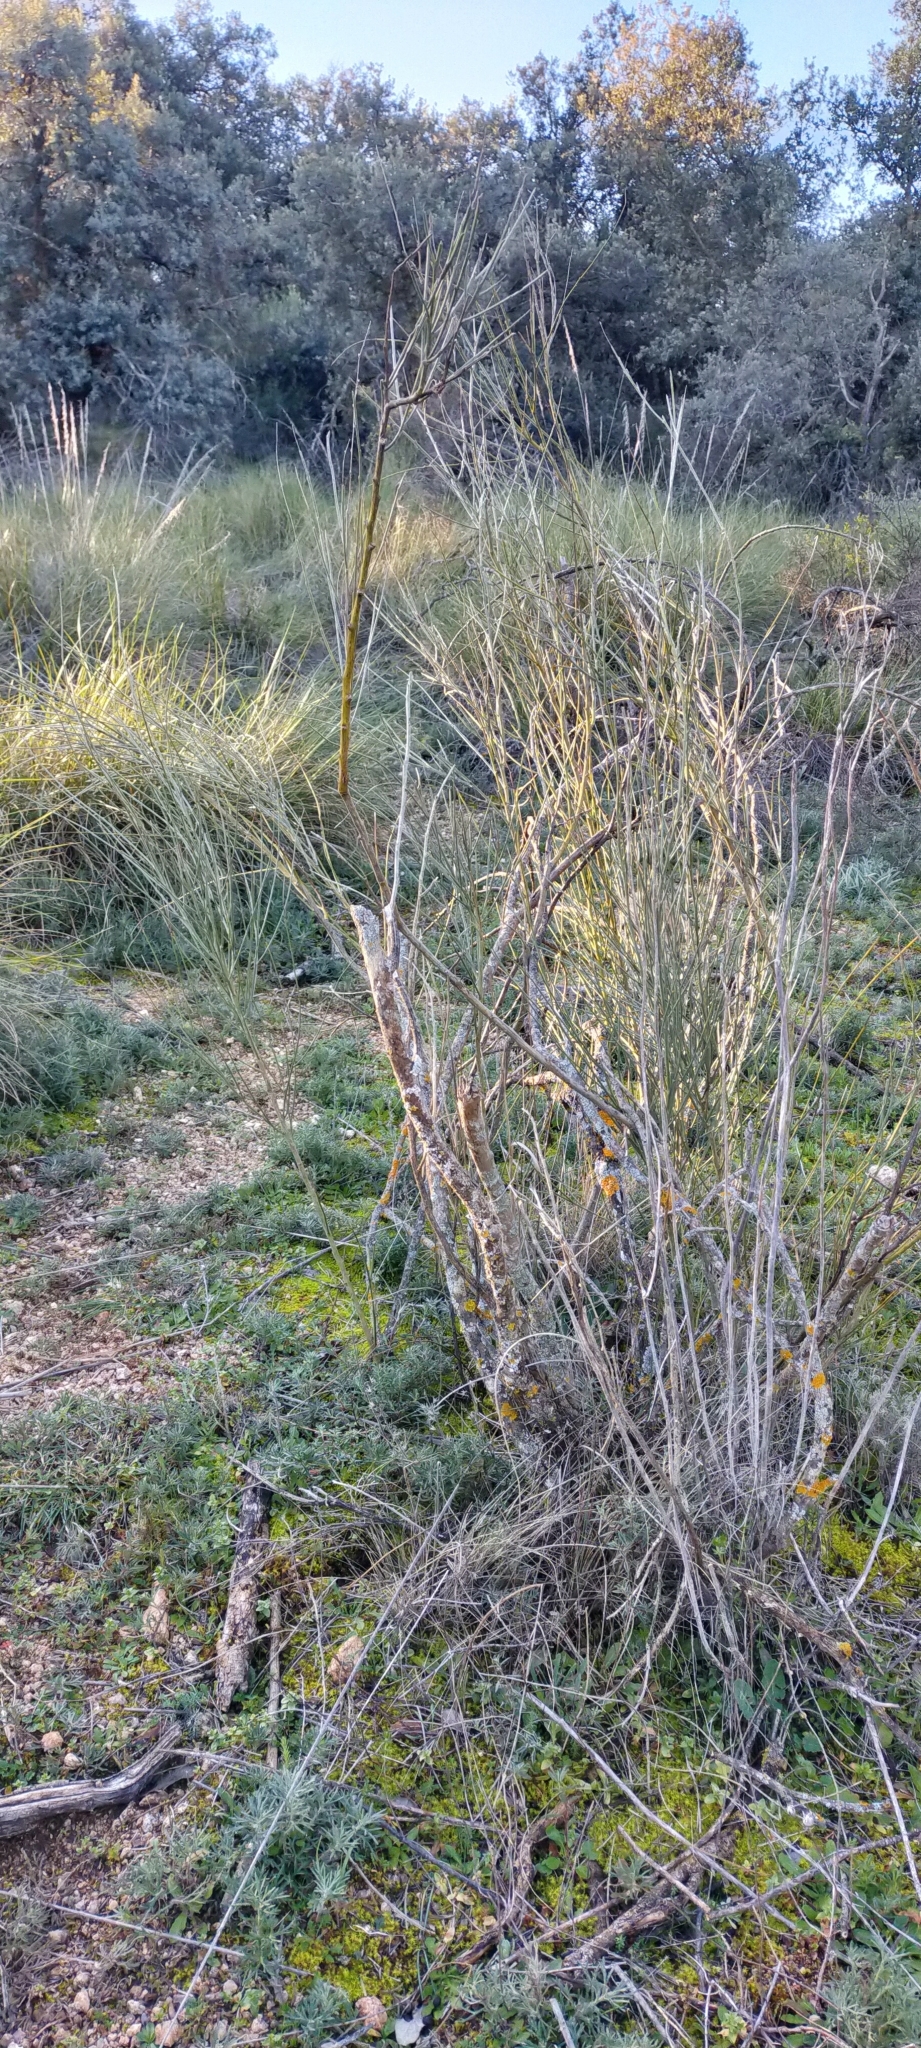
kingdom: Plantae
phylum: Tracheophyta
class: Magnoliopsida
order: Fabales
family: Fabaceae
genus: Retama
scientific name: Retama sphaerocarpa
